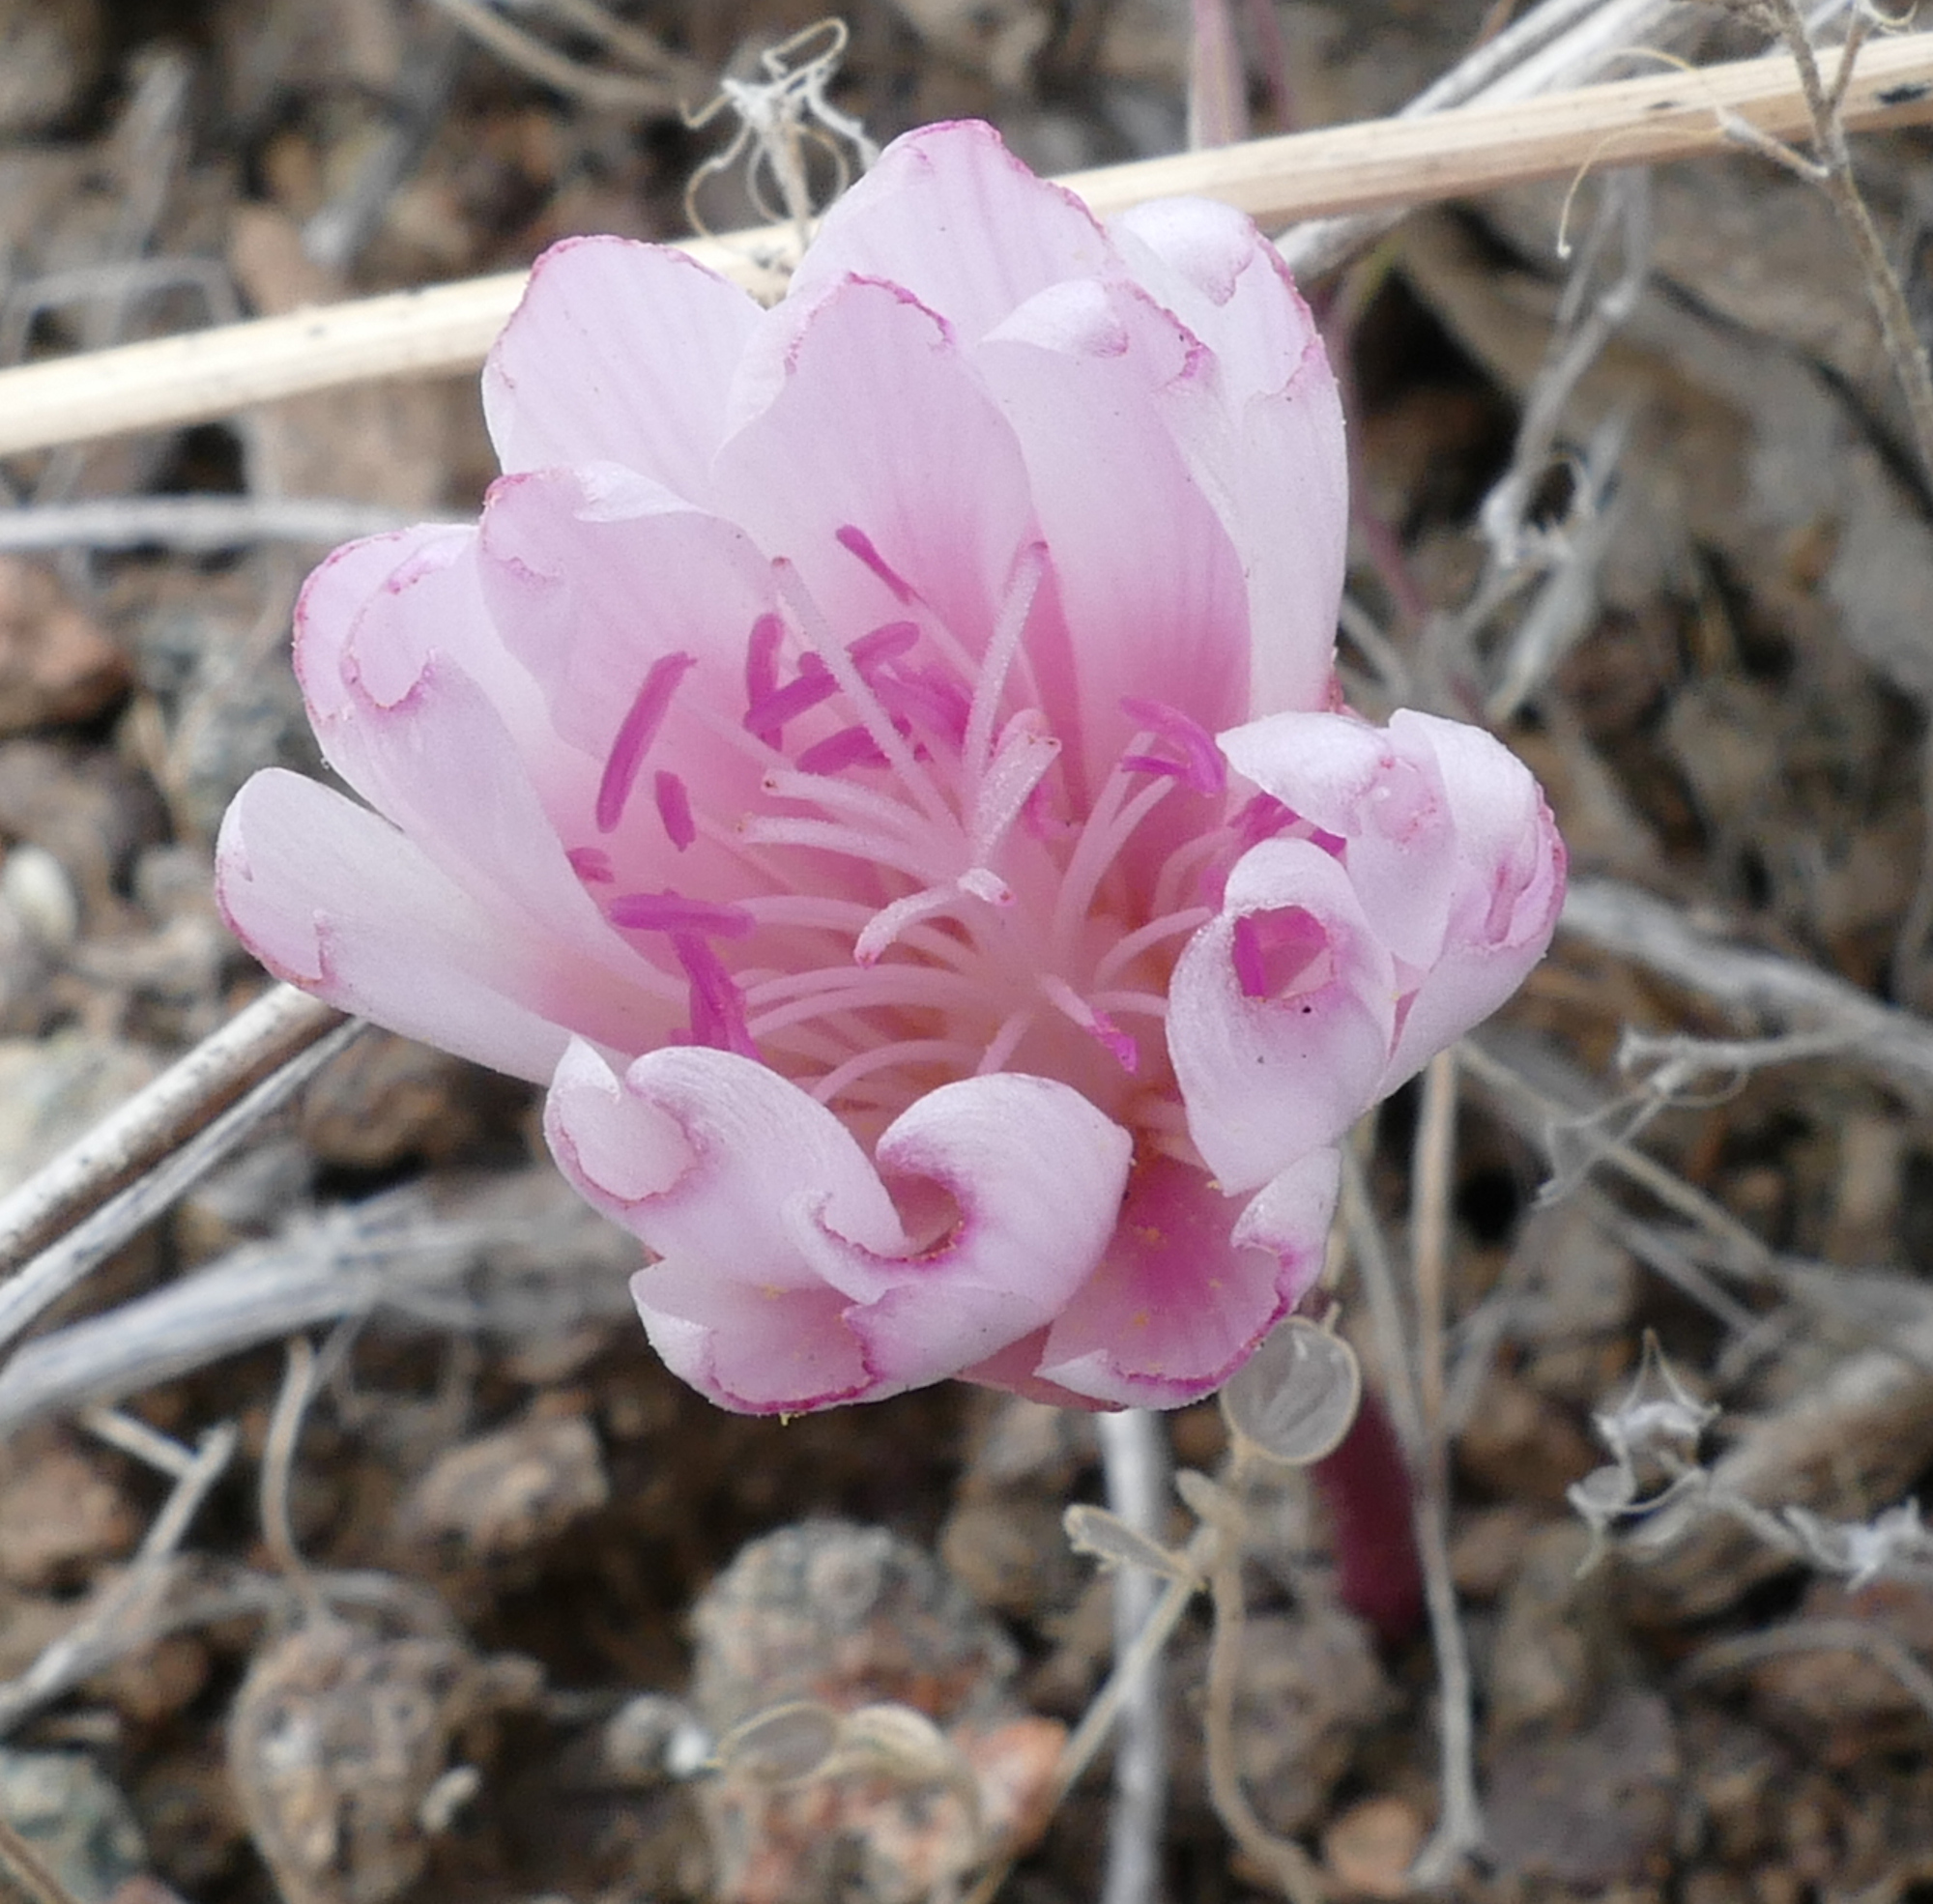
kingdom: Plantae
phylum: Tracheophyta
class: Magnoliopsida
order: Caryophyllales
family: Montiaceae
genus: Lewisia
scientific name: Lewisia rediviva
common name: Bitter-root
